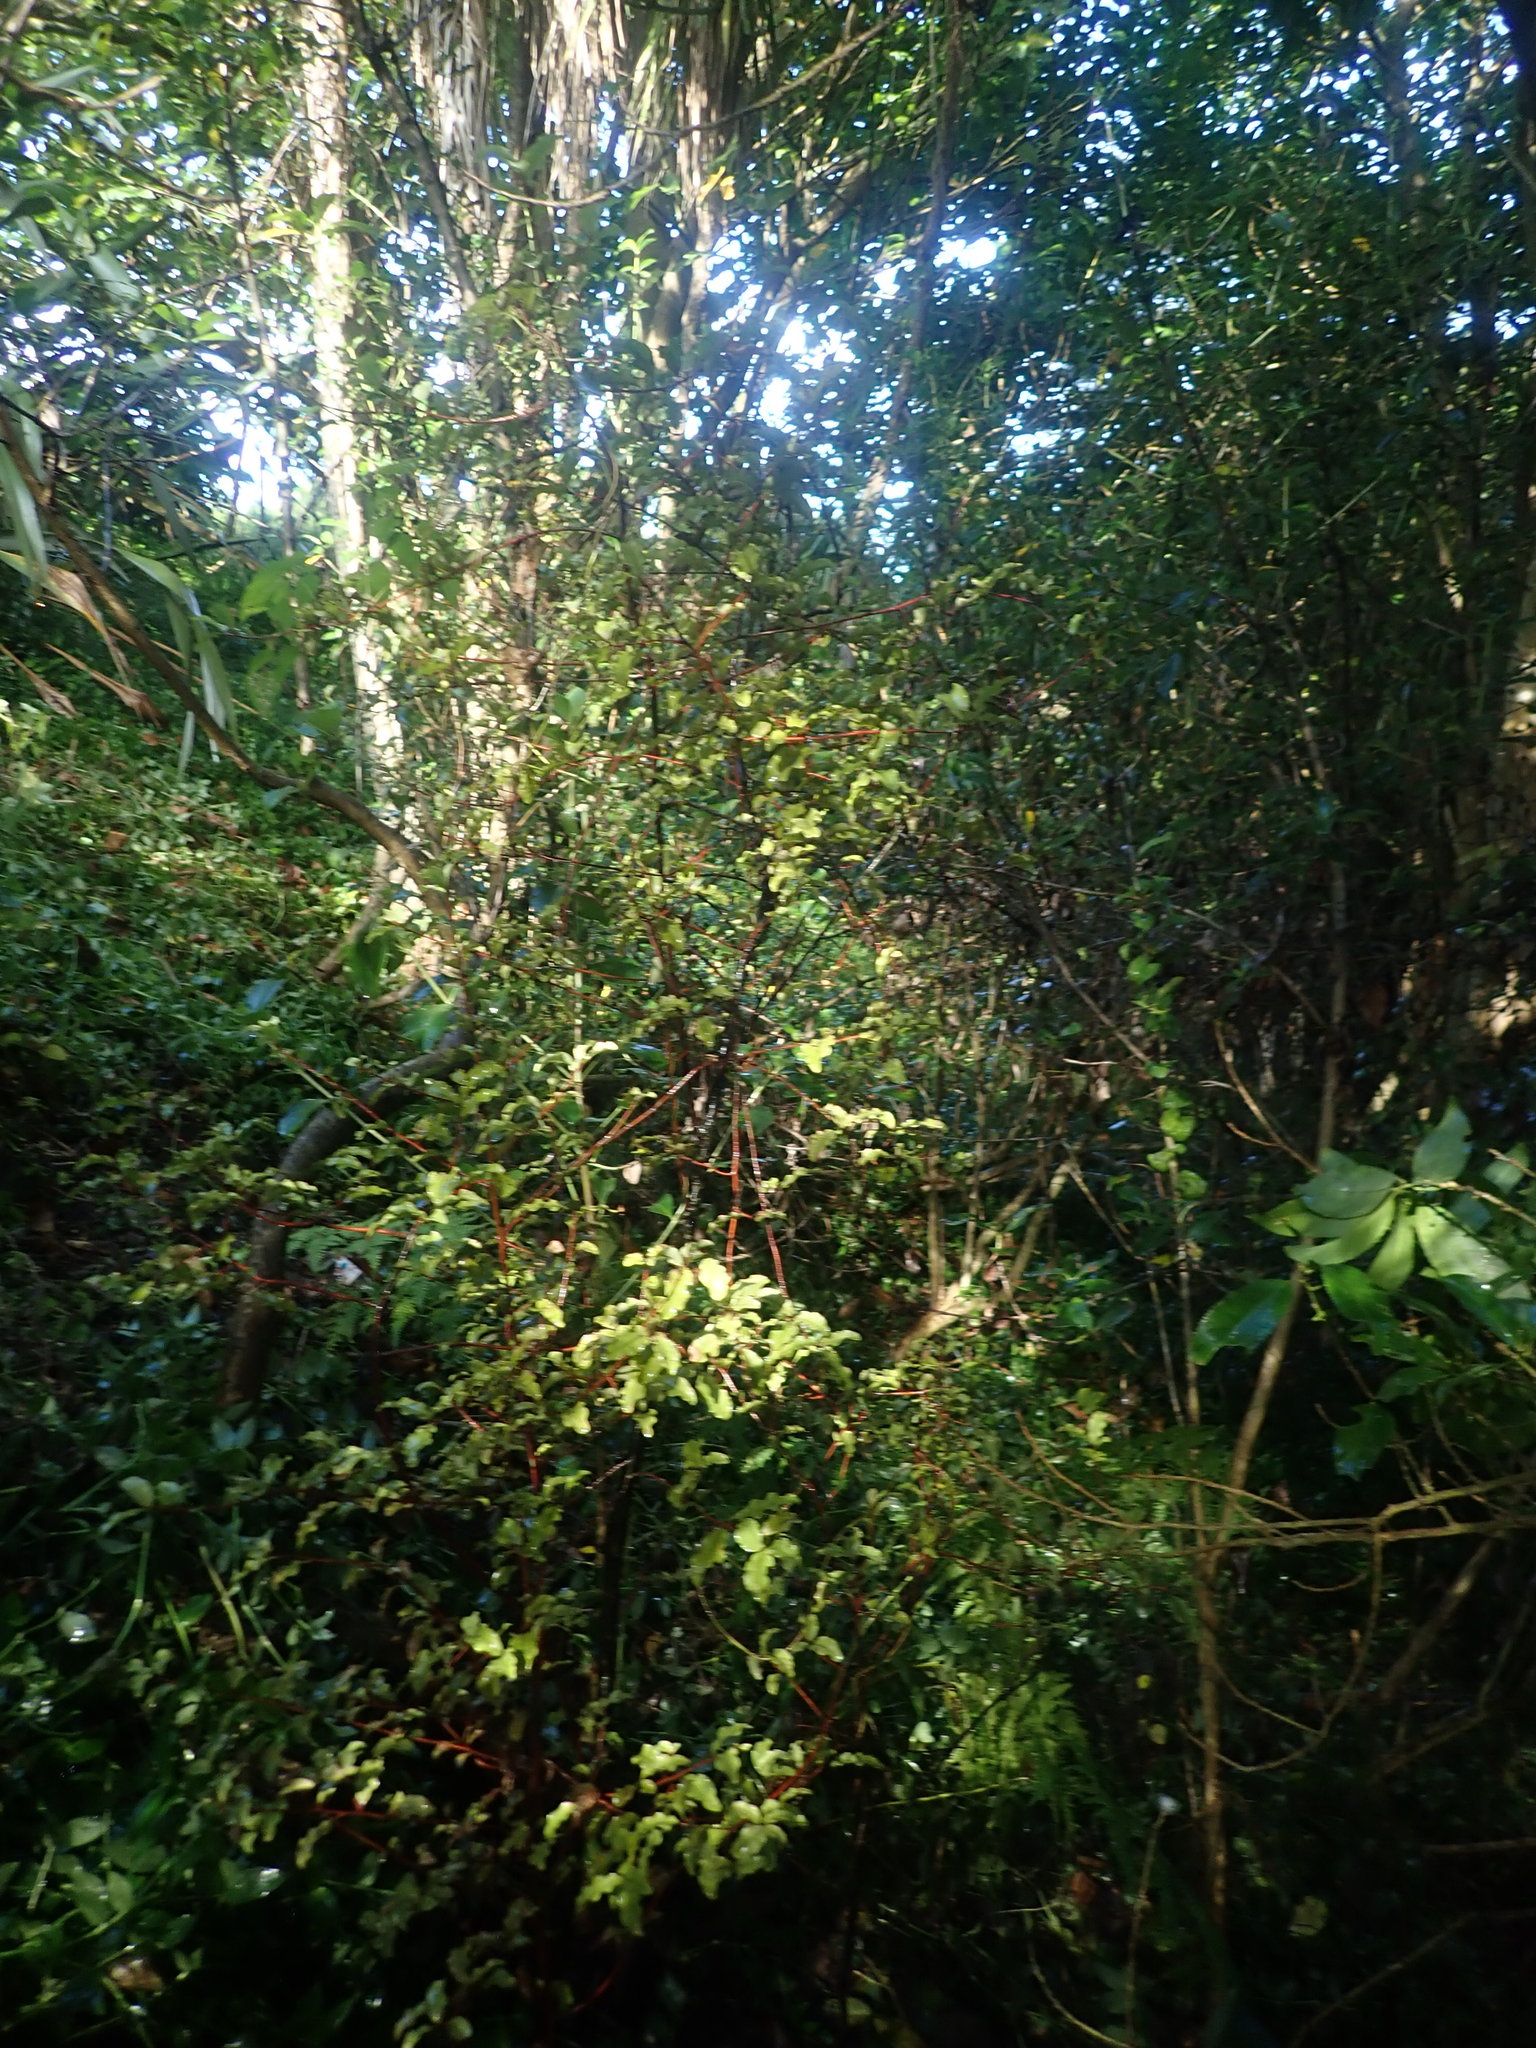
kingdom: Plantae
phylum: Tracheophyta
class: Magnoliopsida
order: Ericales
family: Primulaceae
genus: Myrsine
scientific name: Myrsine australis
